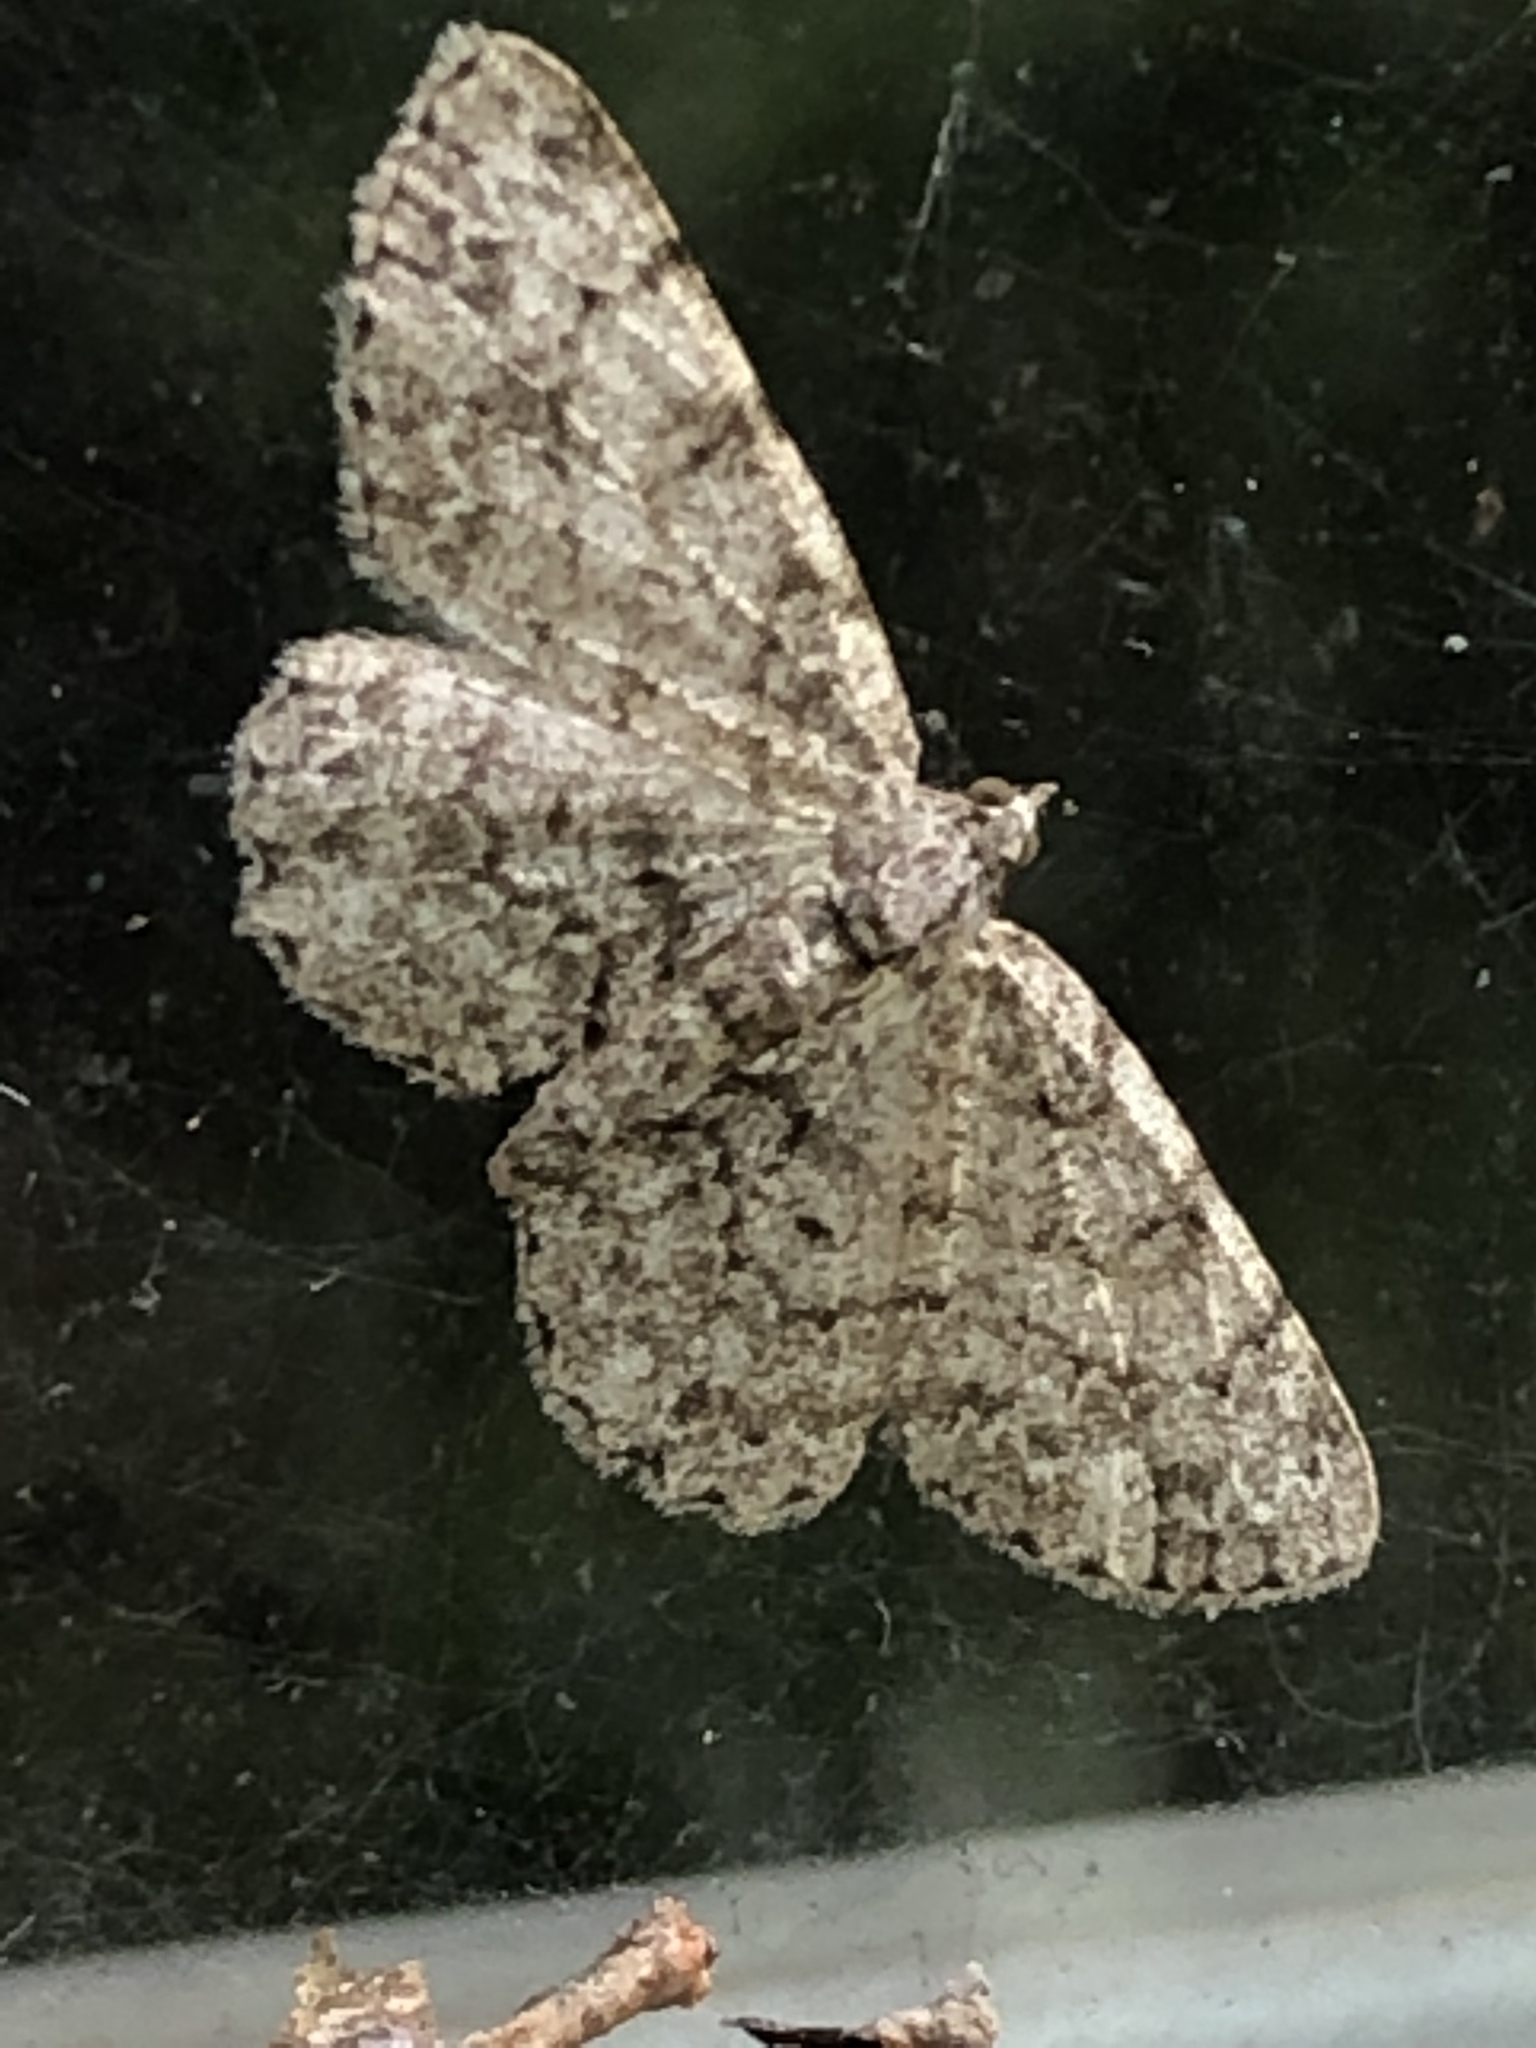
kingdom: Animalia
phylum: Arthropoda
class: Insecta
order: Lepidoptera
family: Geometridae
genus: Protoboarmia
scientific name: Protoboarmia porcelaria
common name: Porcelain gray
